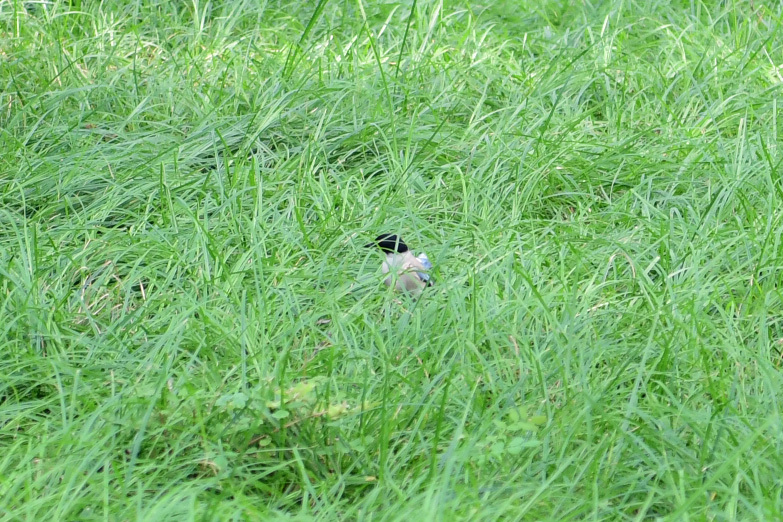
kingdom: Animalia
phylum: Chordata
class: Aves
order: Passeriformes
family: Corvidae
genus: Cyanopica
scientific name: Cyanopica cyanus
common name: Azure-winged magpie
